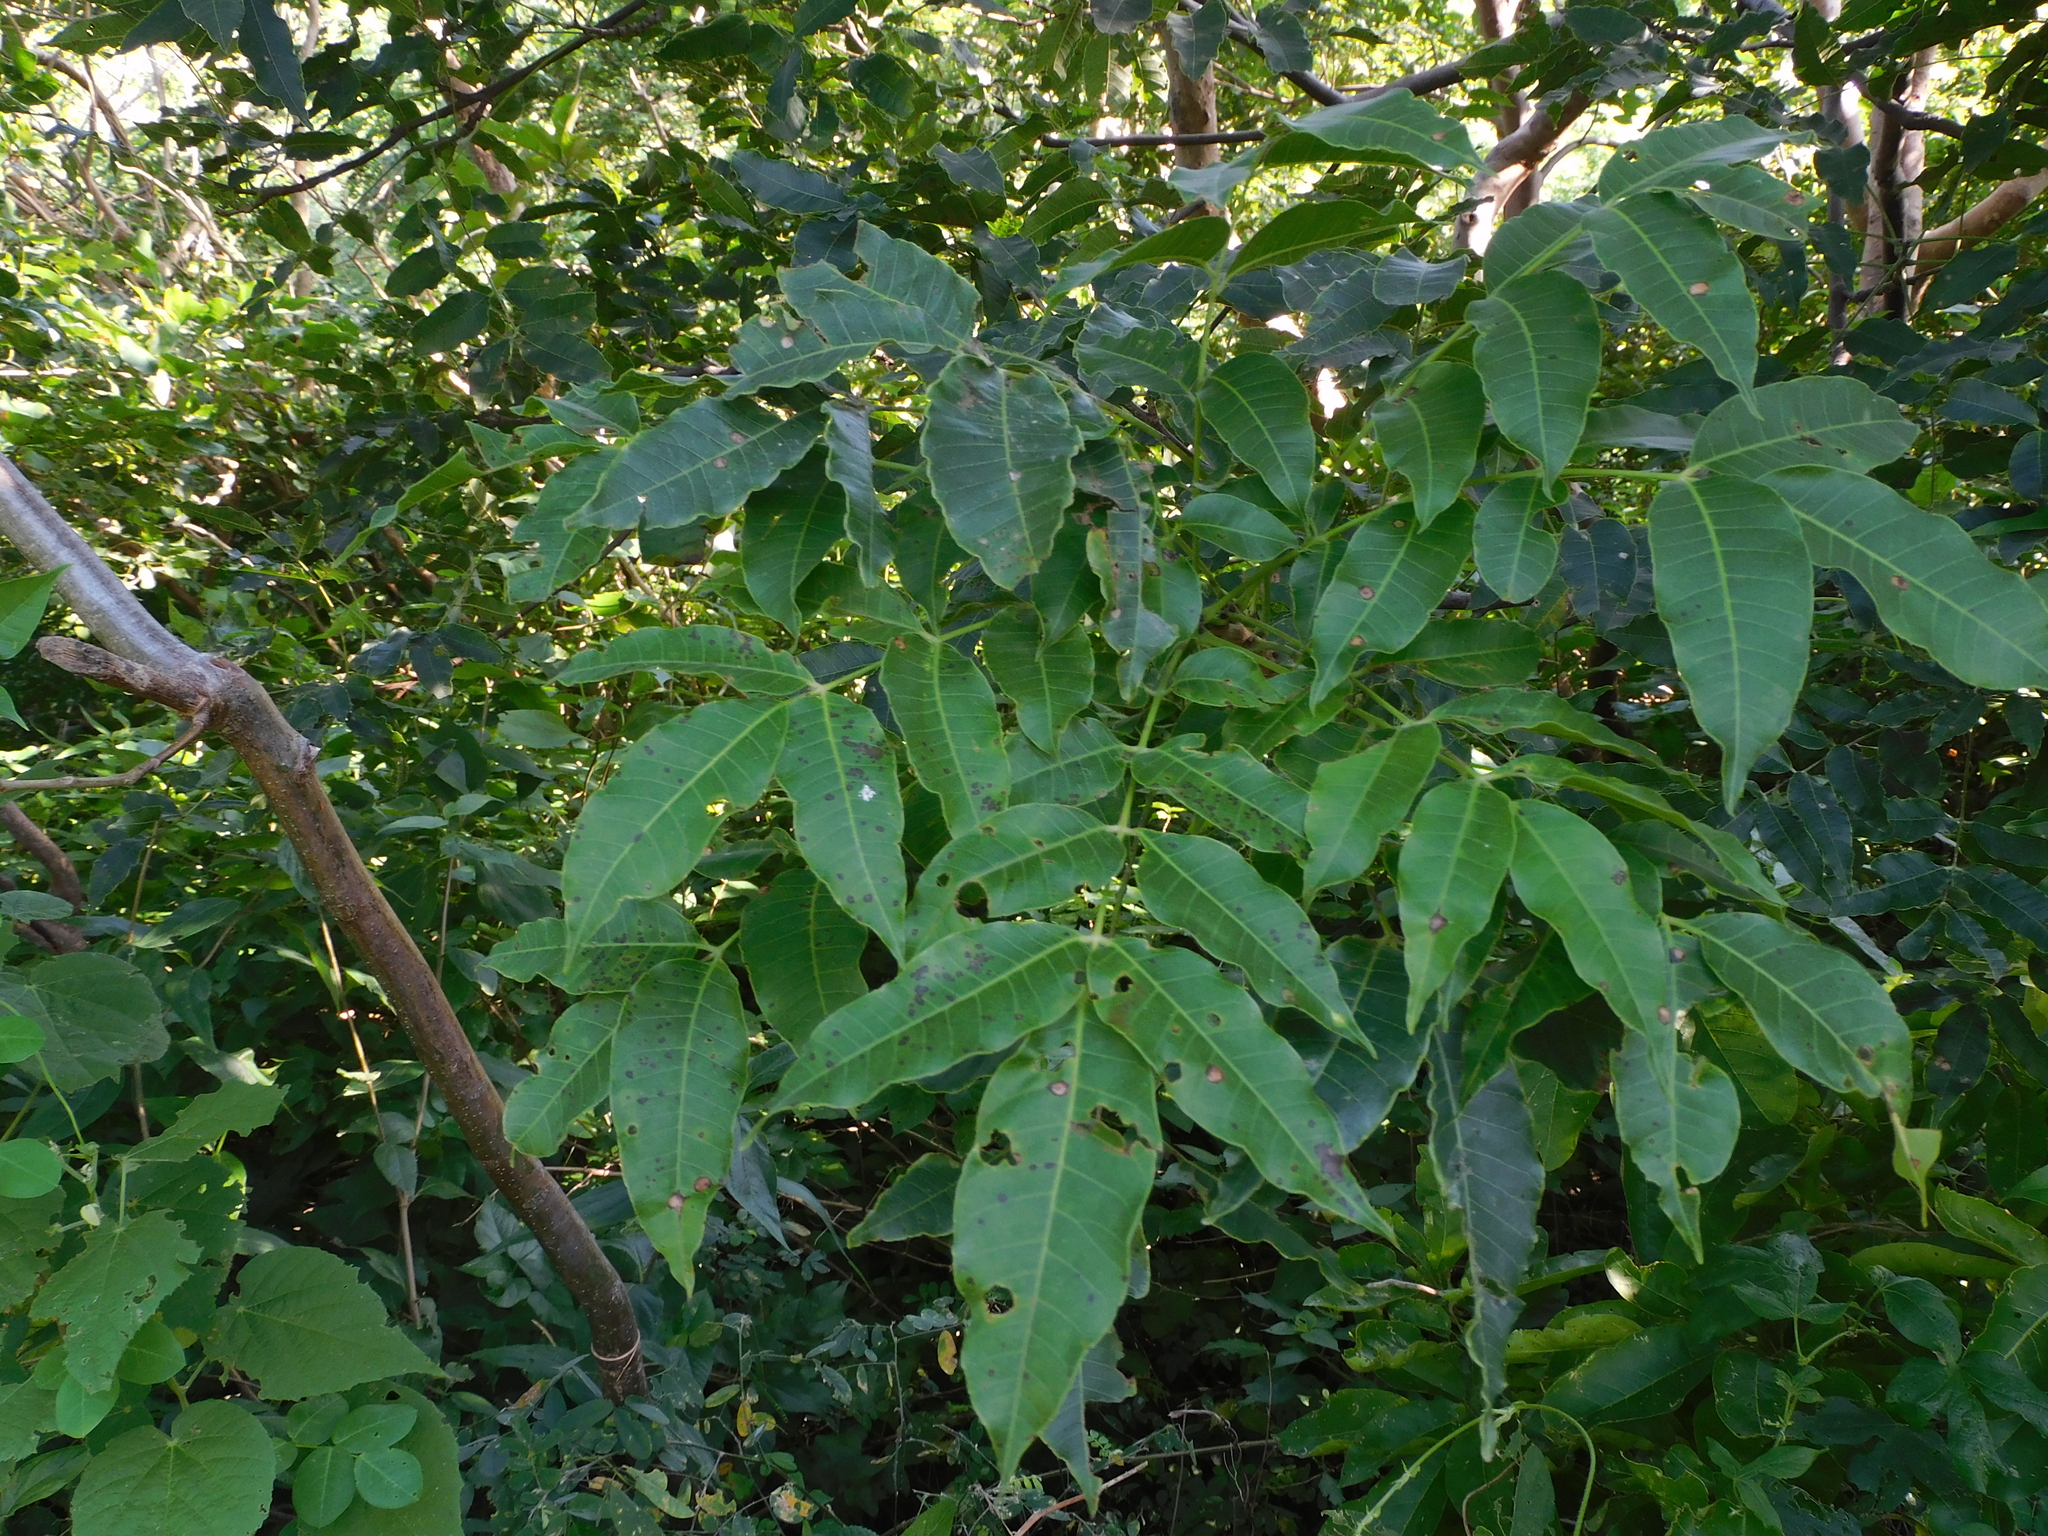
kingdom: Plantae
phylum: Tracheophyta
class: Magnoliopsida
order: Sapindales
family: Anacardiaceae
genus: Astronium
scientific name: Astronium graveolens
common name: Glassywood
